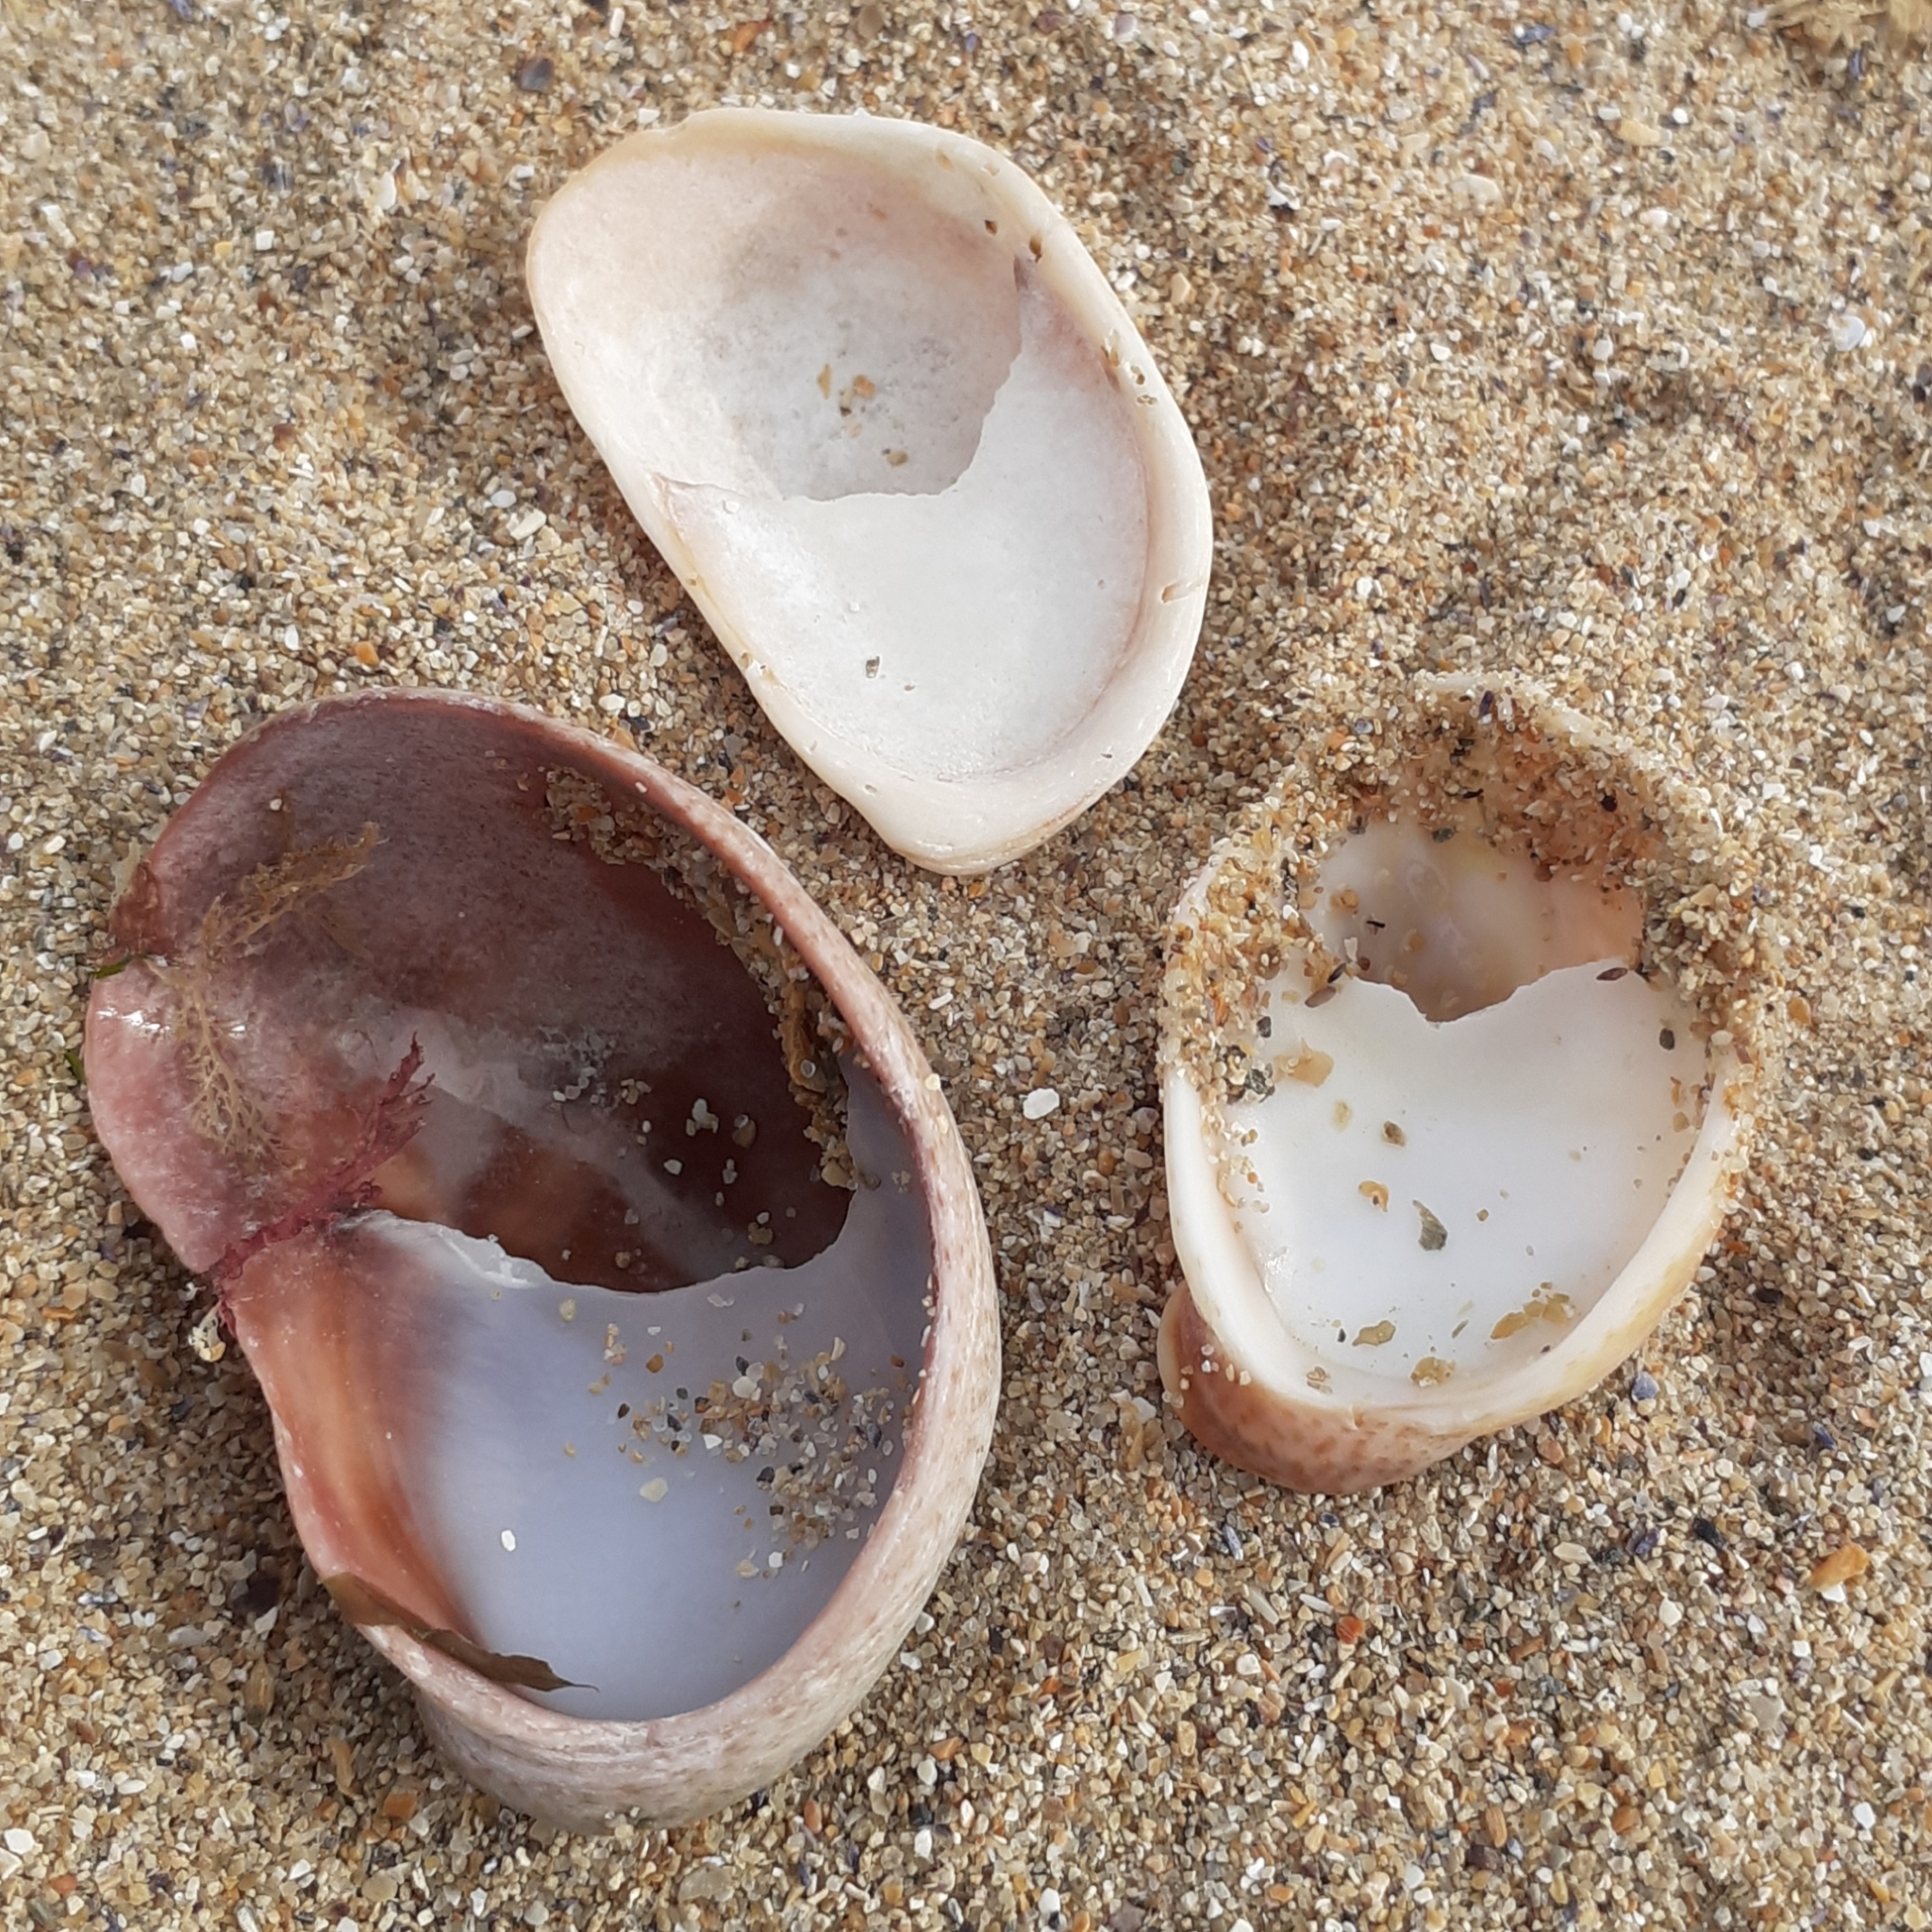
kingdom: Animalia
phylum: Mollusca
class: Gastropoda
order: Littorinimorpha
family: Calyptraeidae
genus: Crepidula
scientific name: Crepidula fornicata
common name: Slipper limpet
